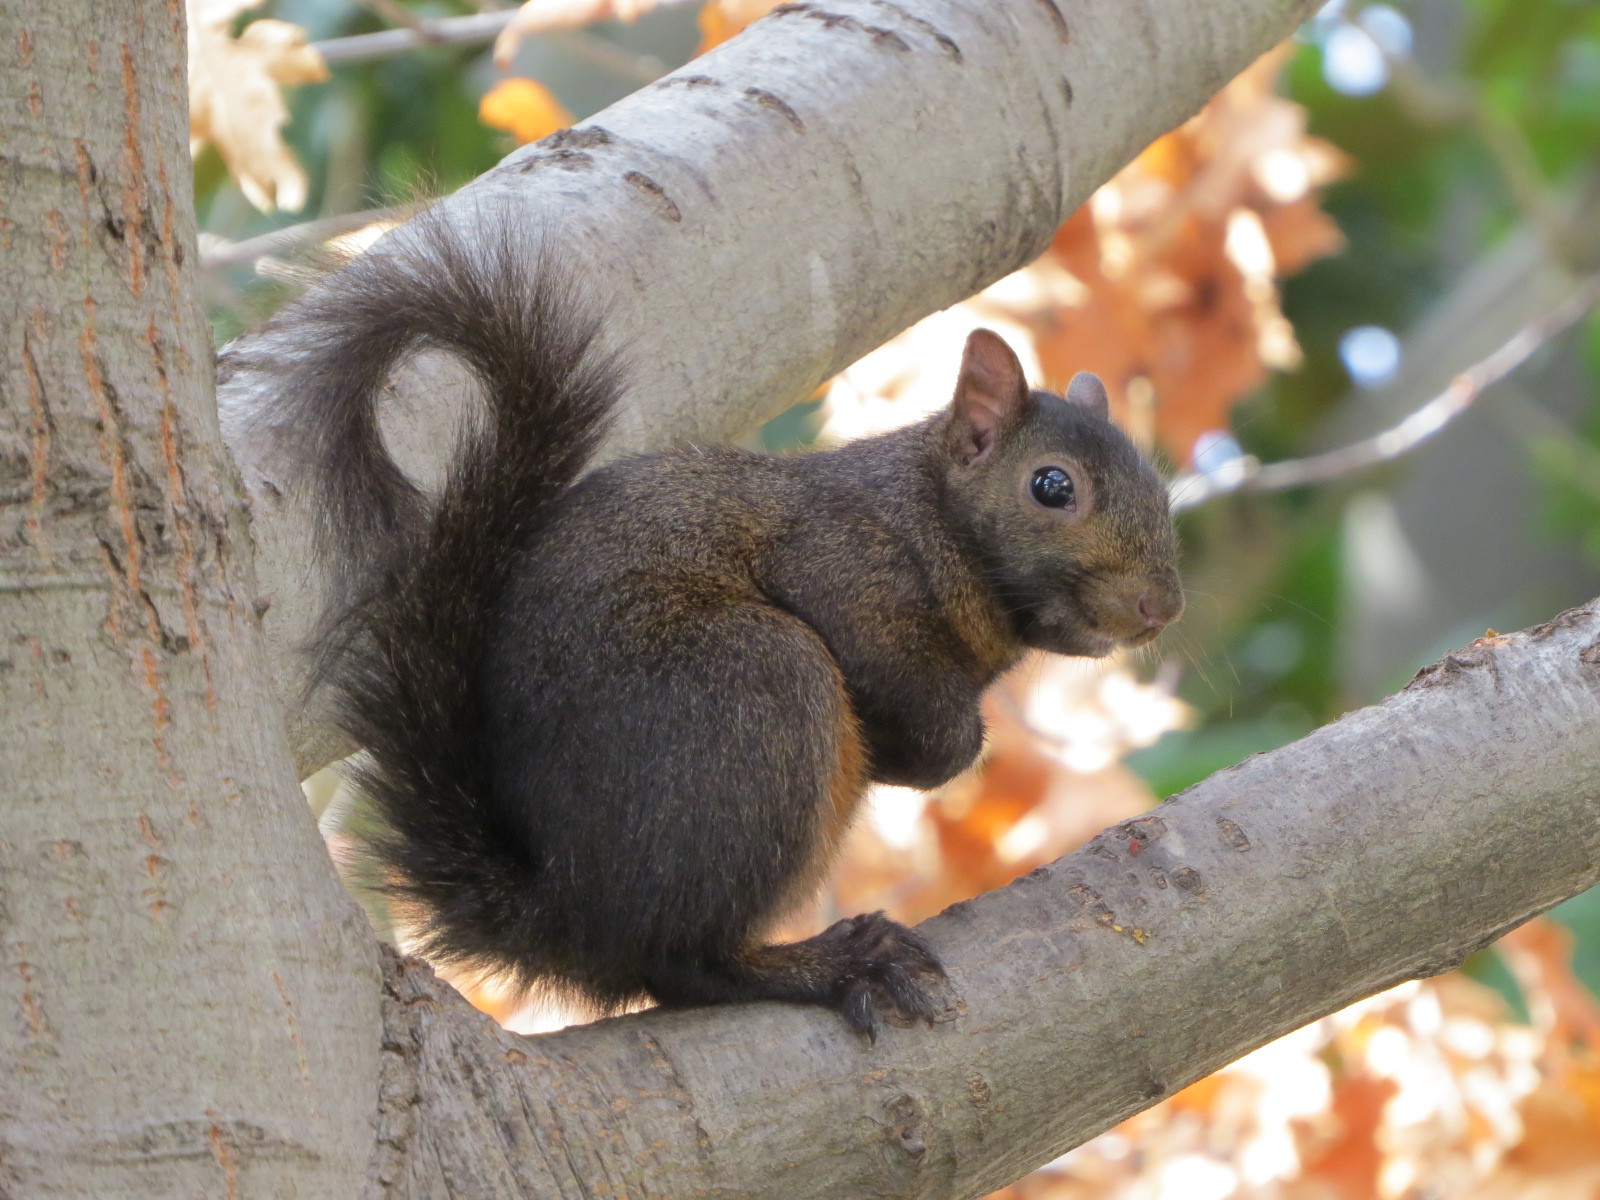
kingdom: Animalia
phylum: Chordata
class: Mammalia
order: Rodentia
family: Sciuridae
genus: Sciurus
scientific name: Sciurus carolinensis
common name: Eastern gray squirrel
